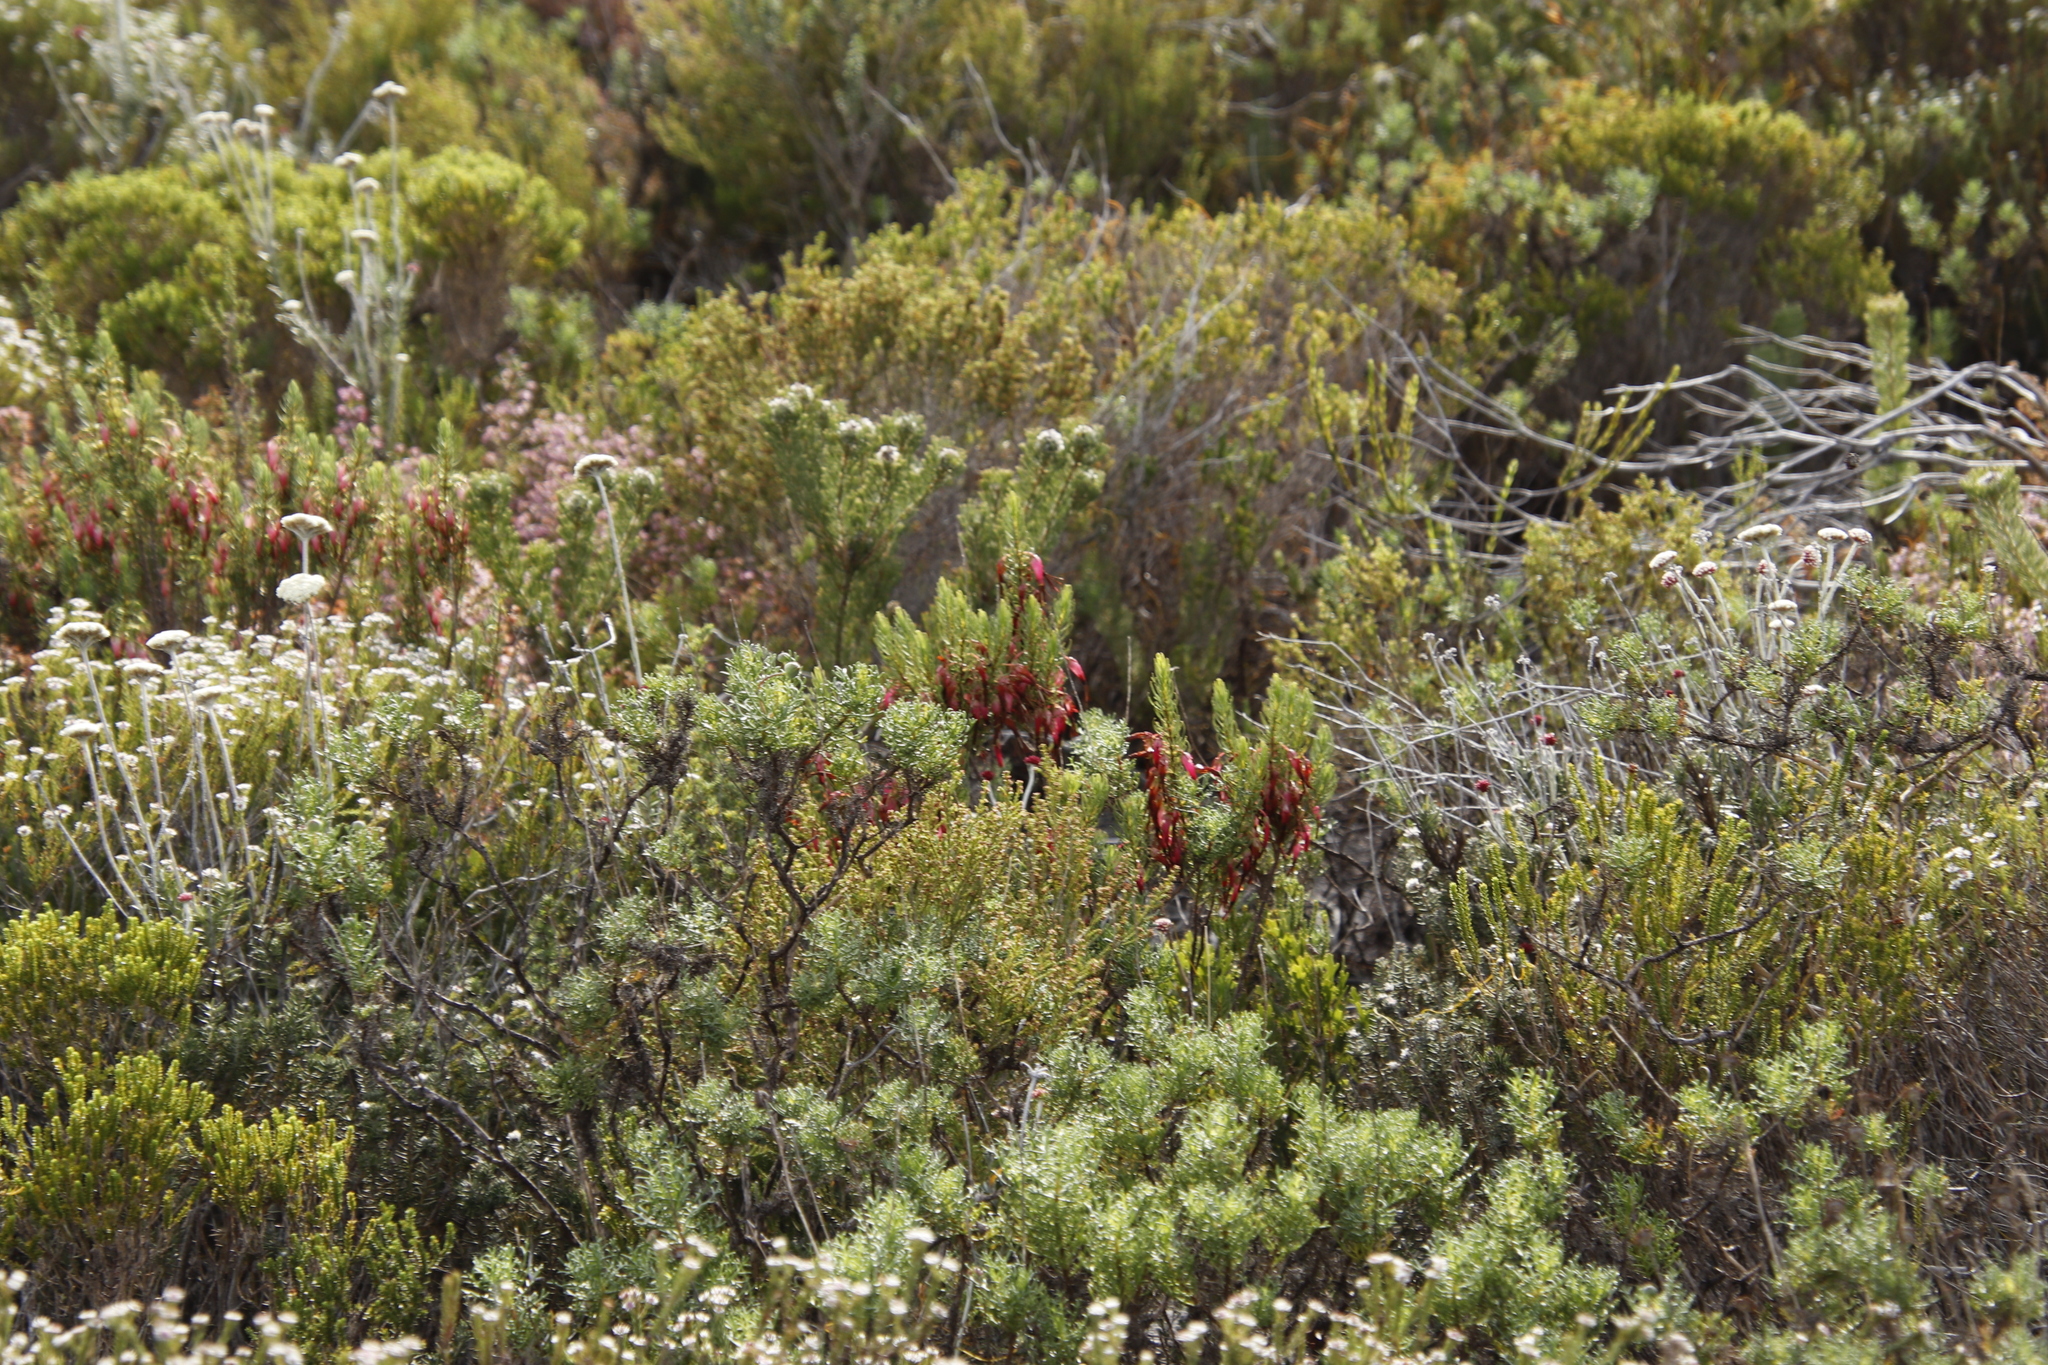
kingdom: Plantae
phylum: Tracheophyta
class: Magnoliopsida
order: Ericales
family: Ericaceae
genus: Erica
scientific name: Erica plukenetii
